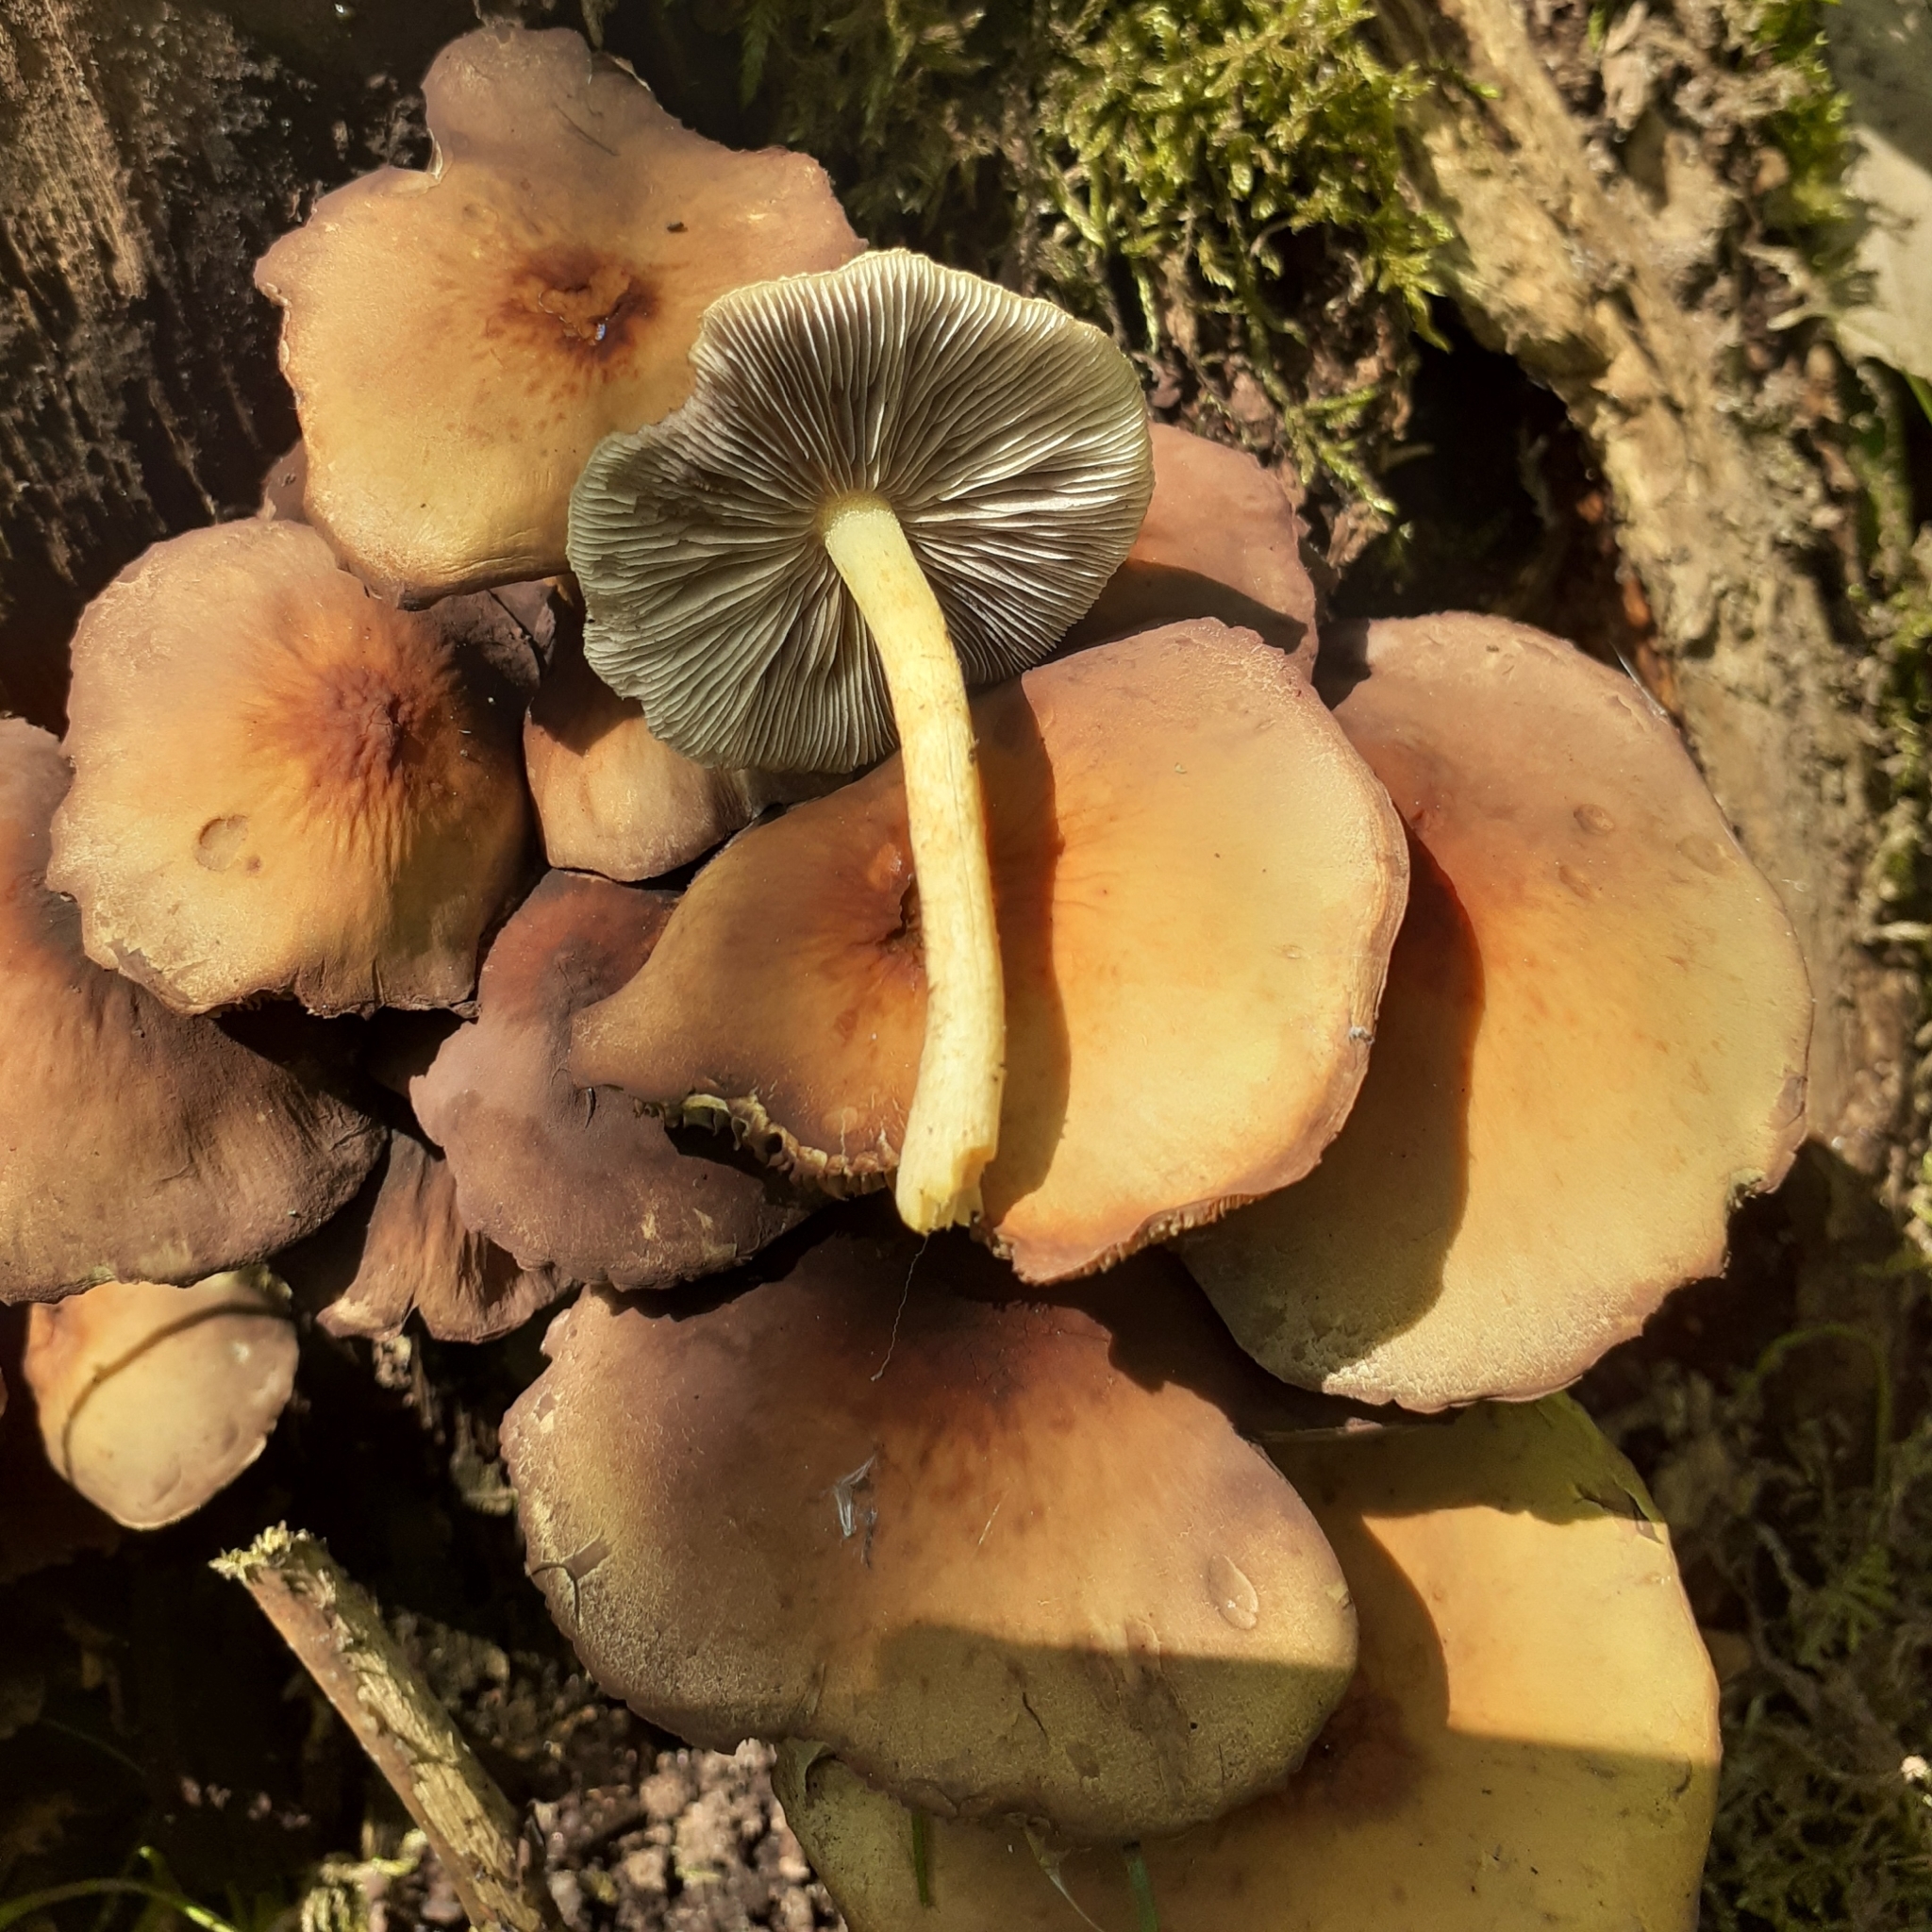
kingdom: Fungi
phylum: Basidiomycota
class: Agaricomycetes
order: Agaricales
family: Strophariaceae
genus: Hypholoma
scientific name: Hypholoma fasciculare
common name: Sulphur tuft
